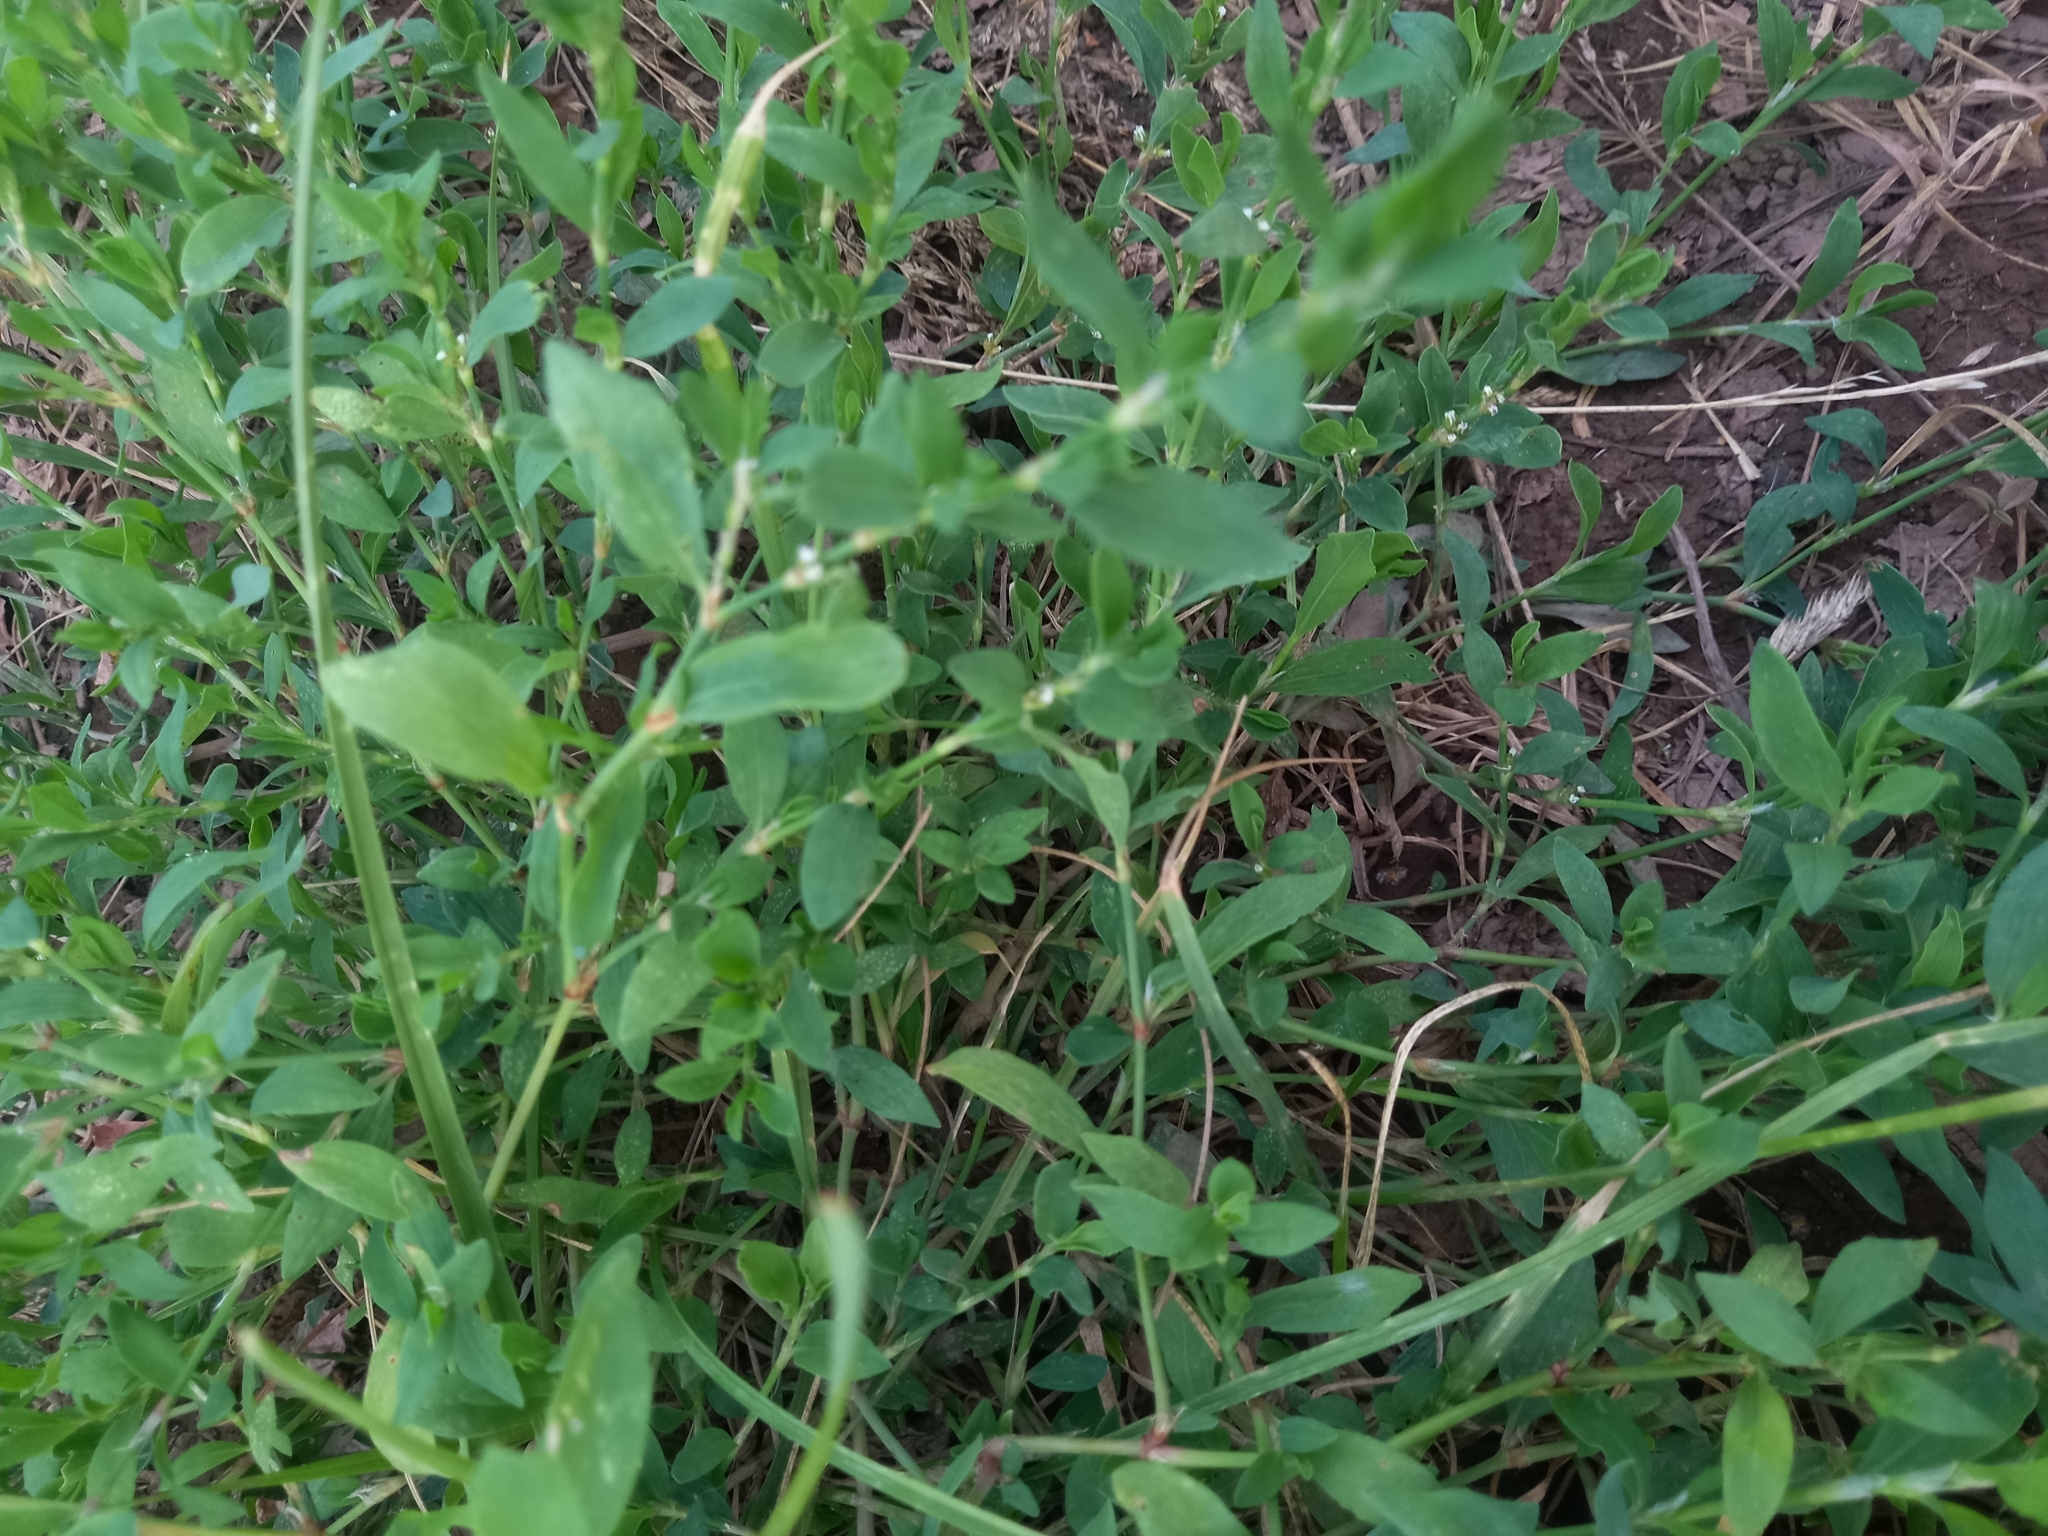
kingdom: Plantae
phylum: Tracheophyta
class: Magnoliopsida
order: Caryophyllales
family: Polygonaceae
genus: Polygonum
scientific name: Polygonum
